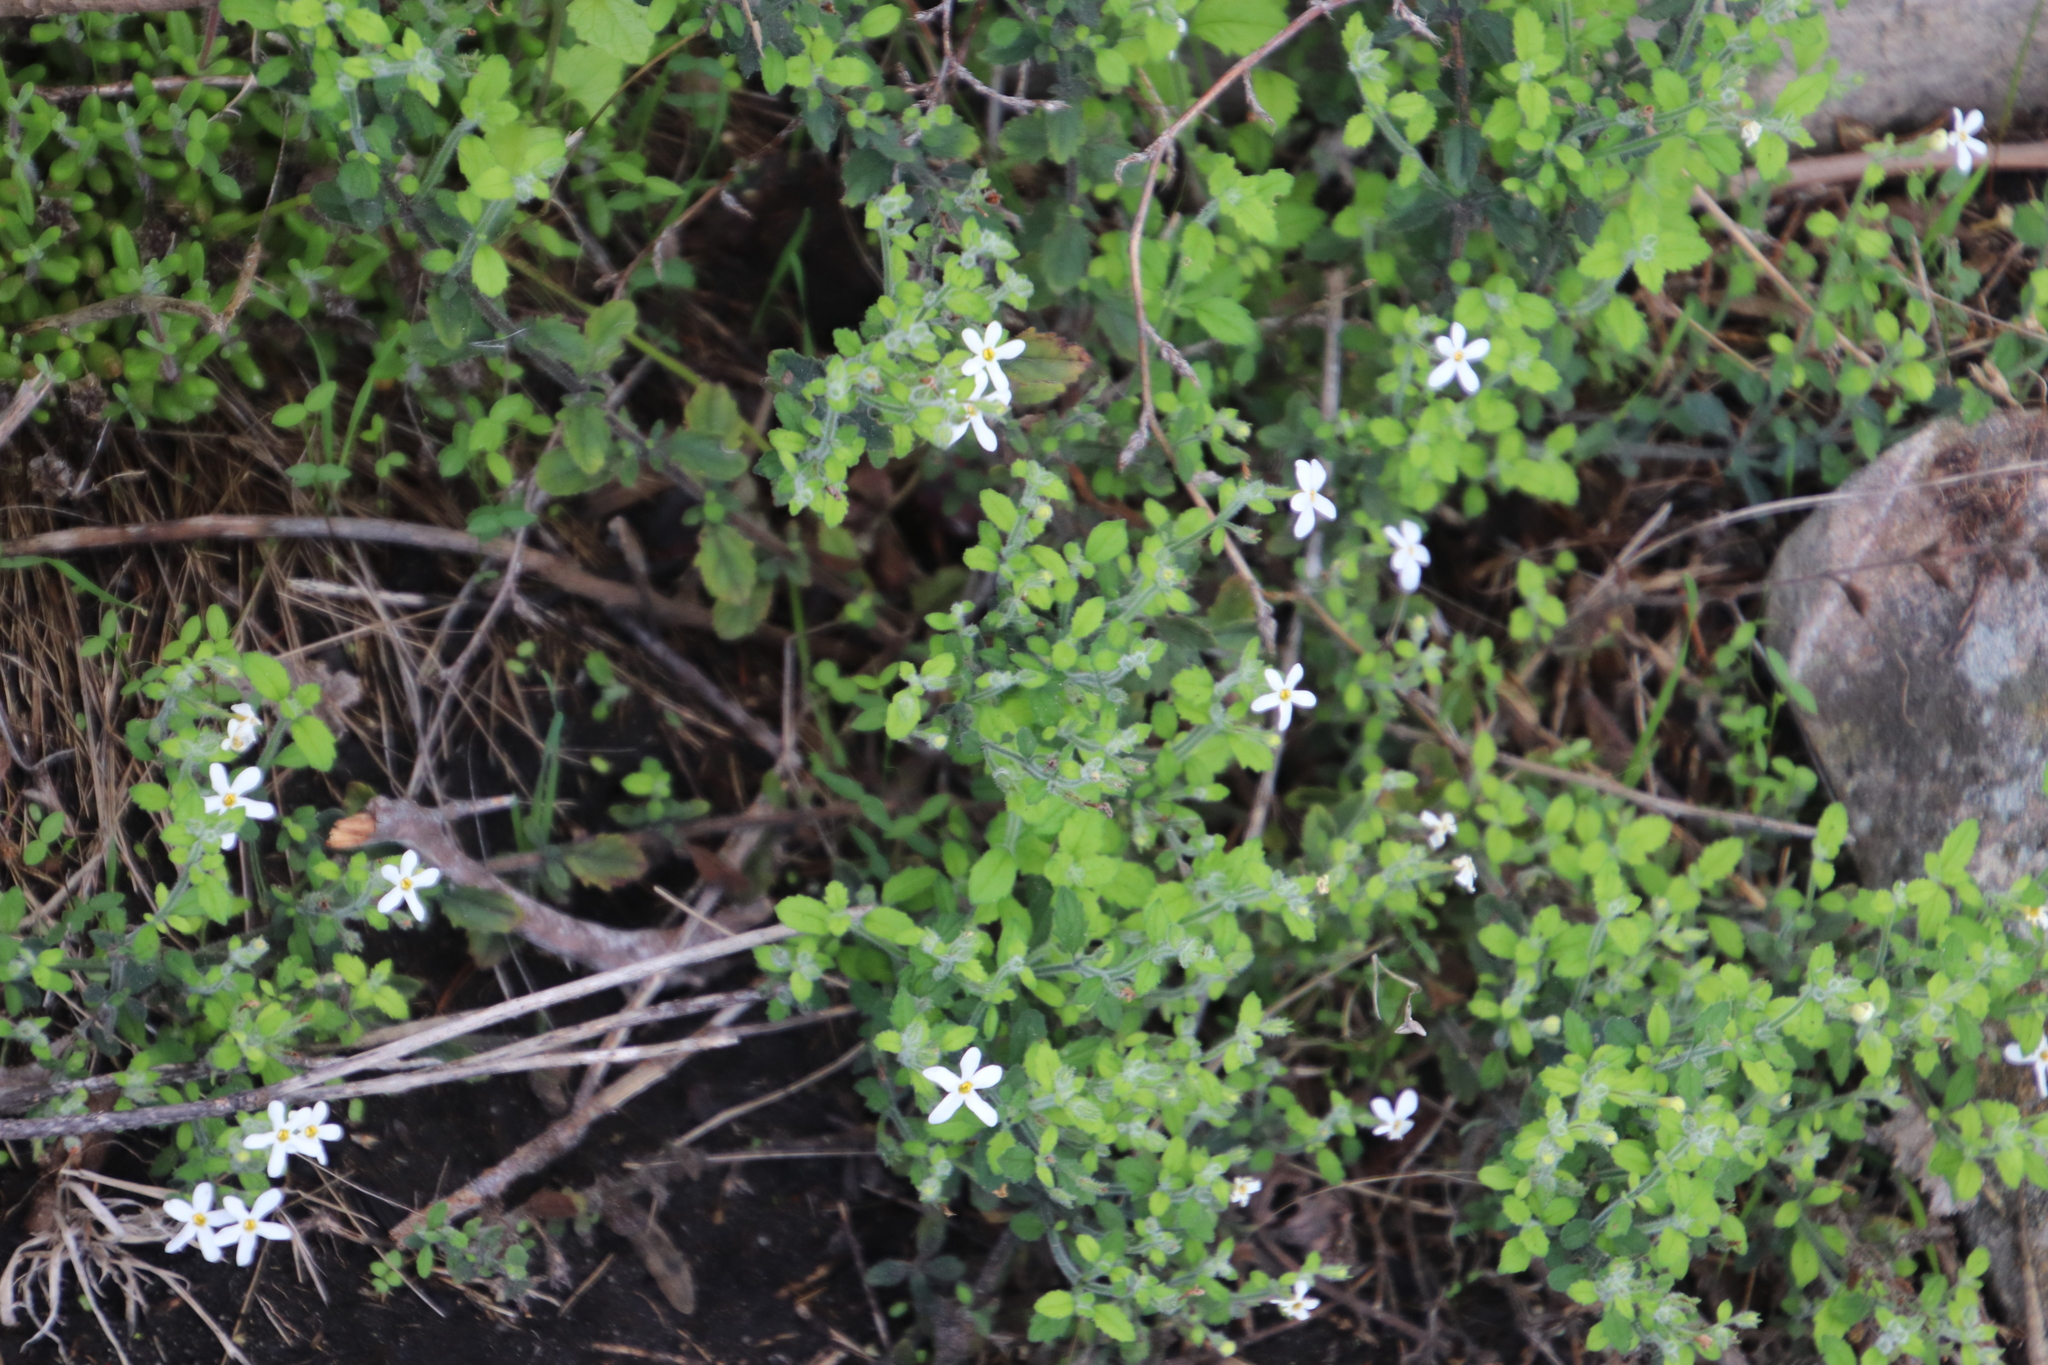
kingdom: Plantae
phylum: Tracheophyta
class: Magnoliopsida
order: Lamiales
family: Scrophulariaceae
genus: Chaenostoma
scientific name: Chaenostoma hispidum
